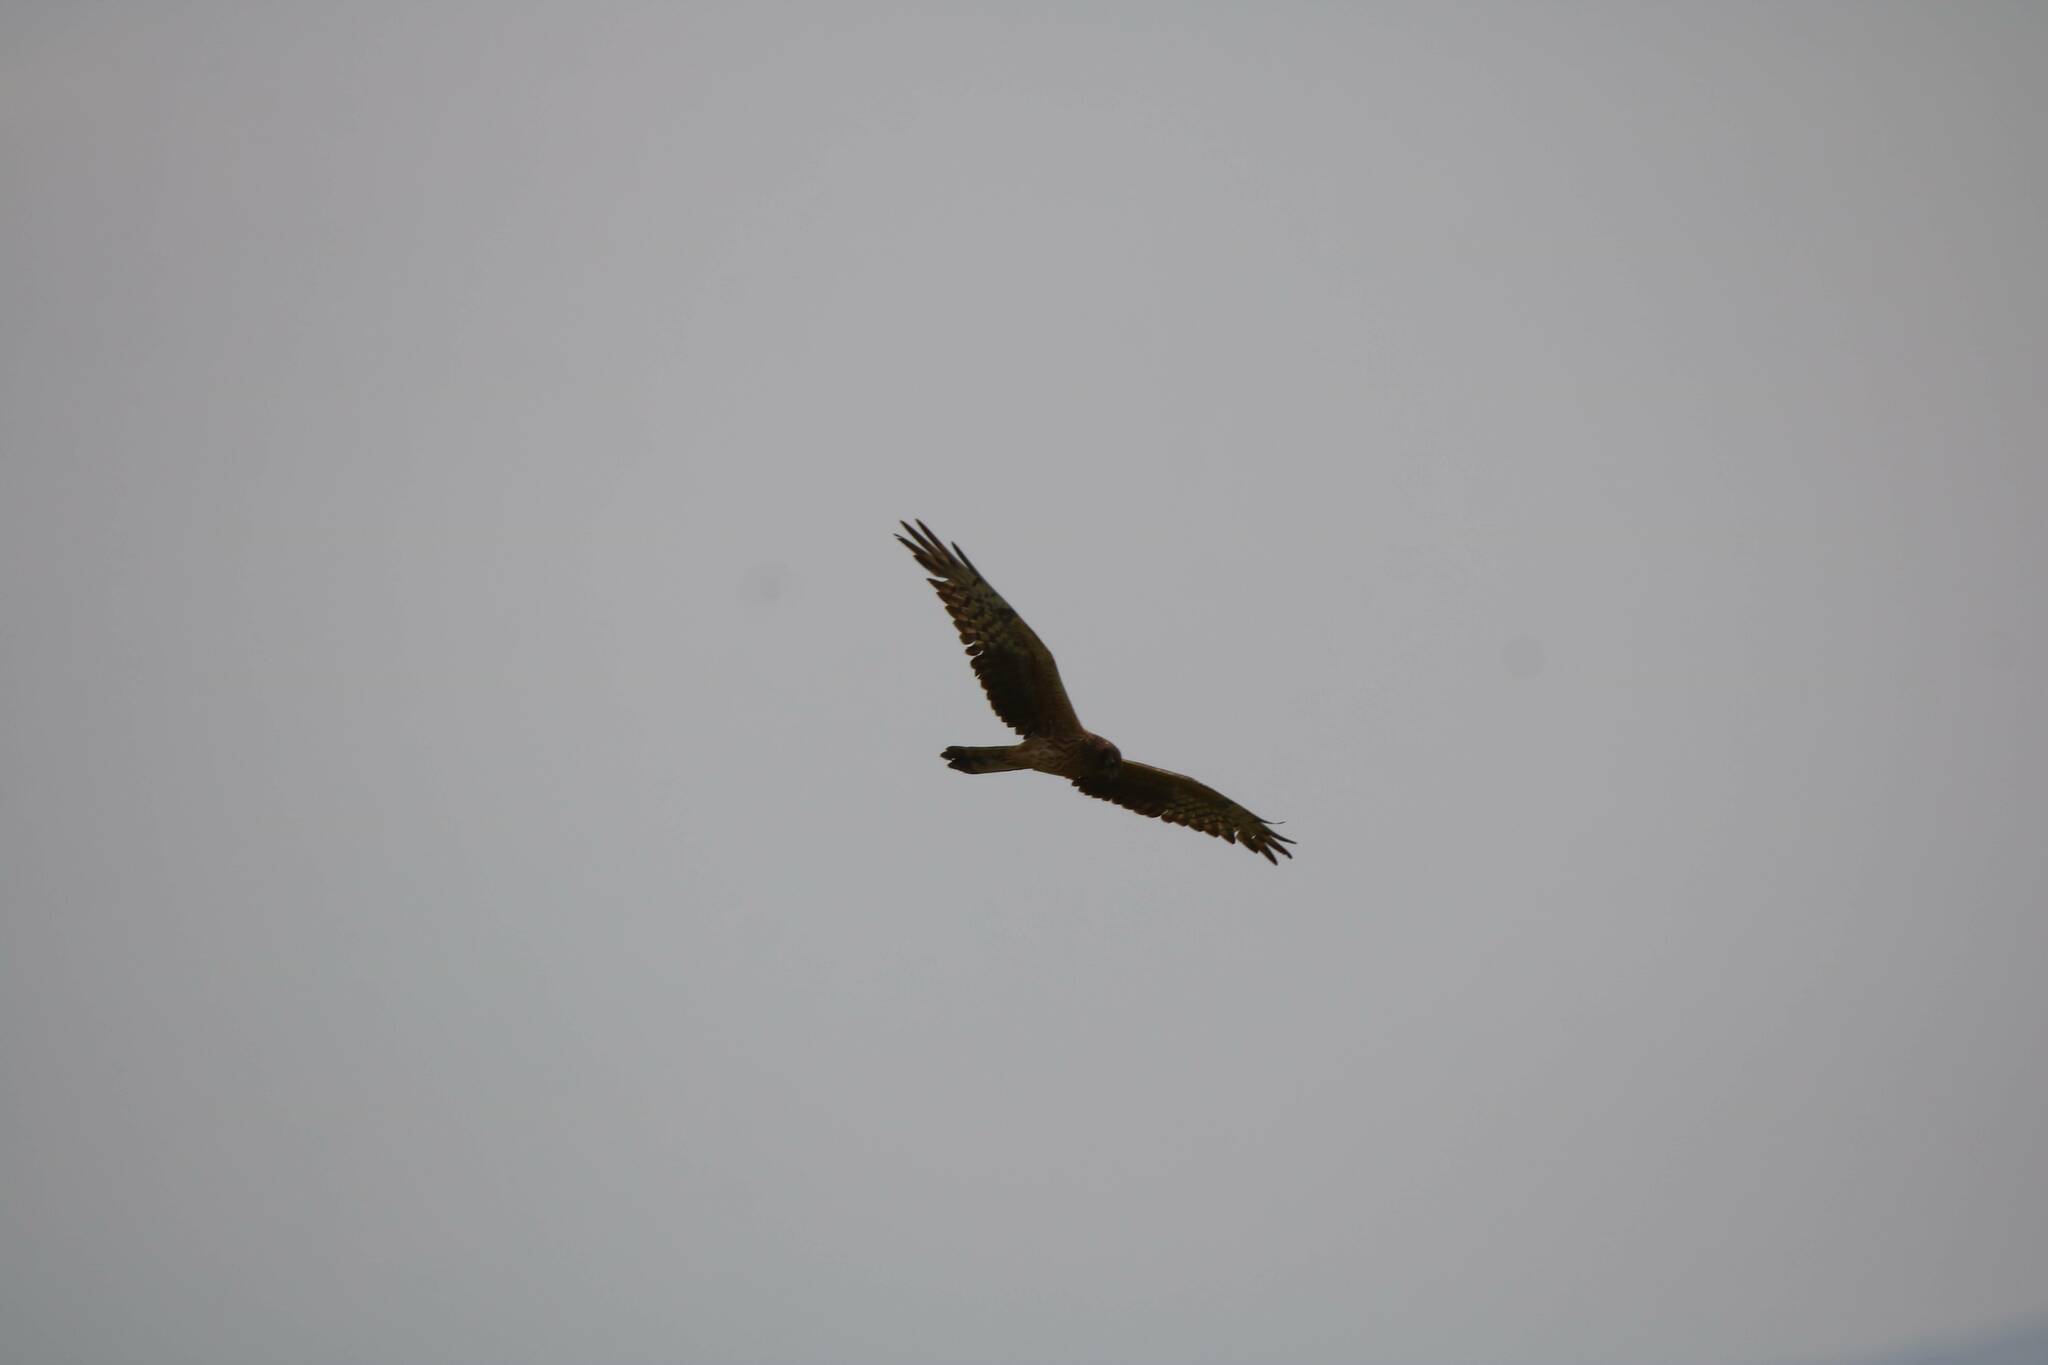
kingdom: Animalia
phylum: Chordata
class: Aves
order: Accipitriformes
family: Accipitridae
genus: Circus
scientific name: Circus pygargus
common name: Montagu's harrier
